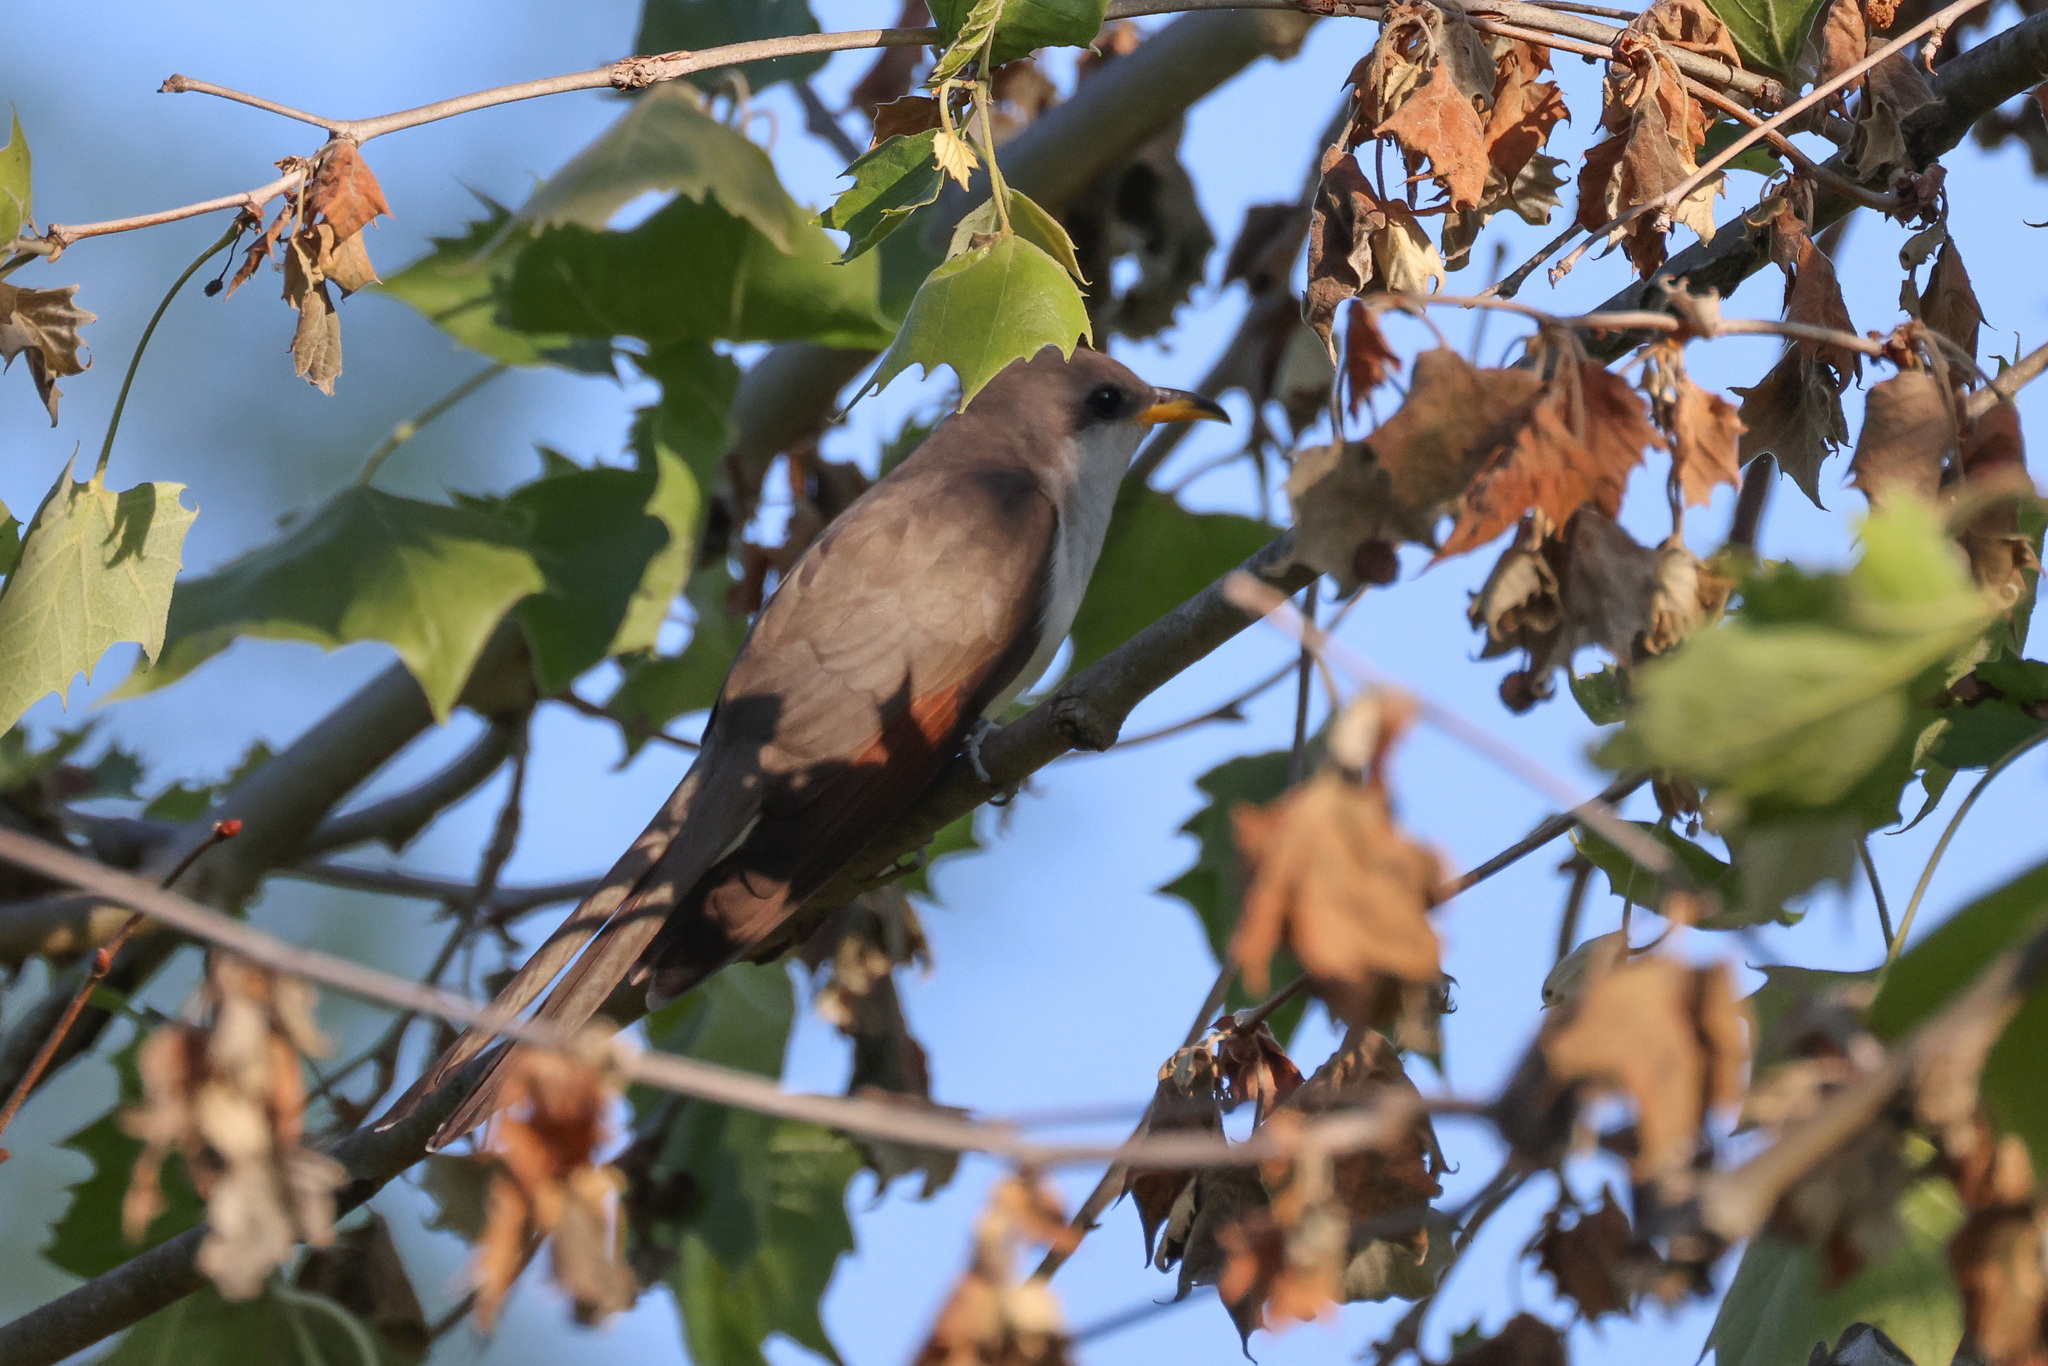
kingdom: Animalia
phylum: Chordata
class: Aves
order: Cuculiformes
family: Cuculidae
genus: Coccyzus
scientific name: Coccyzus americanus
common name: Yellow-billed cuckoo
